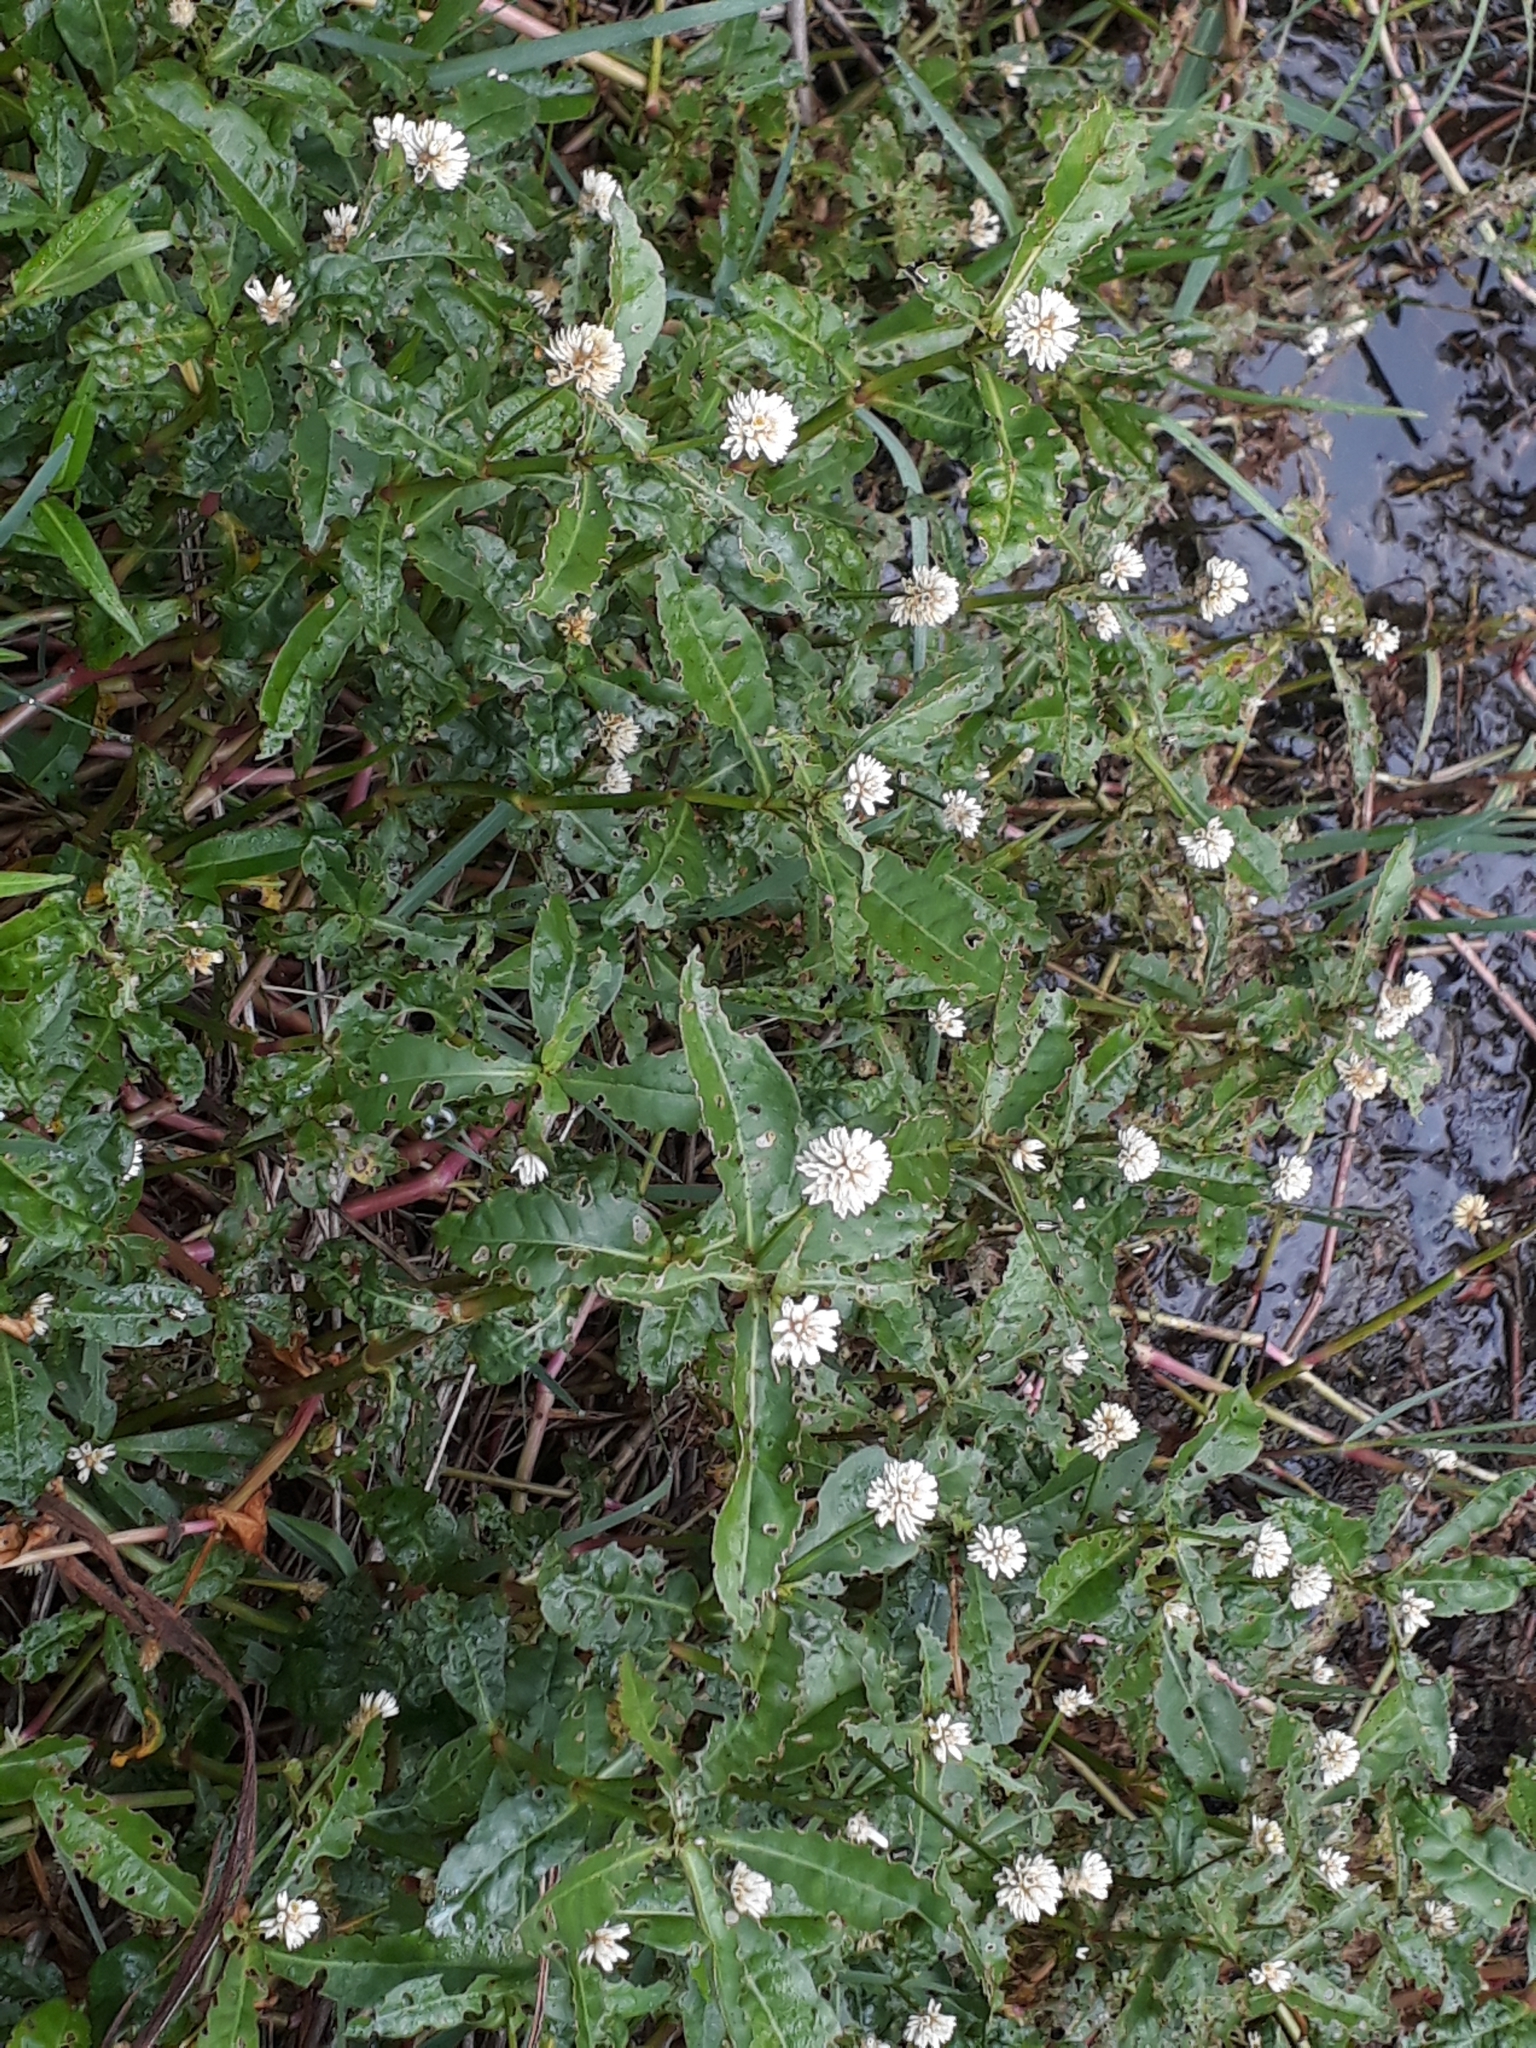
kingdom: Plantae
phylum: Tracheophyta
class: Magnoliopsida
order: Caryophyllales
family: Amaranthaceae
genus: Alternanthera
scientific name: Alternanthera philoxeroides
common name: Alligatorweed
